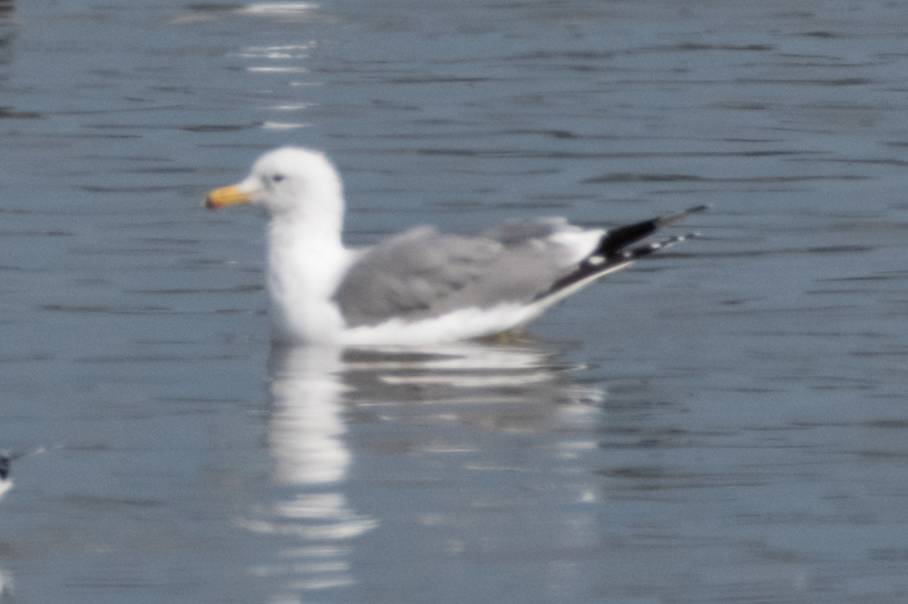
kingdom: Animalia
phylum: Chordata
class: Aves
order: Charadriiformes
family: Laridae
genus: Larus
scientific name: Larus californicus
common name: California gull
